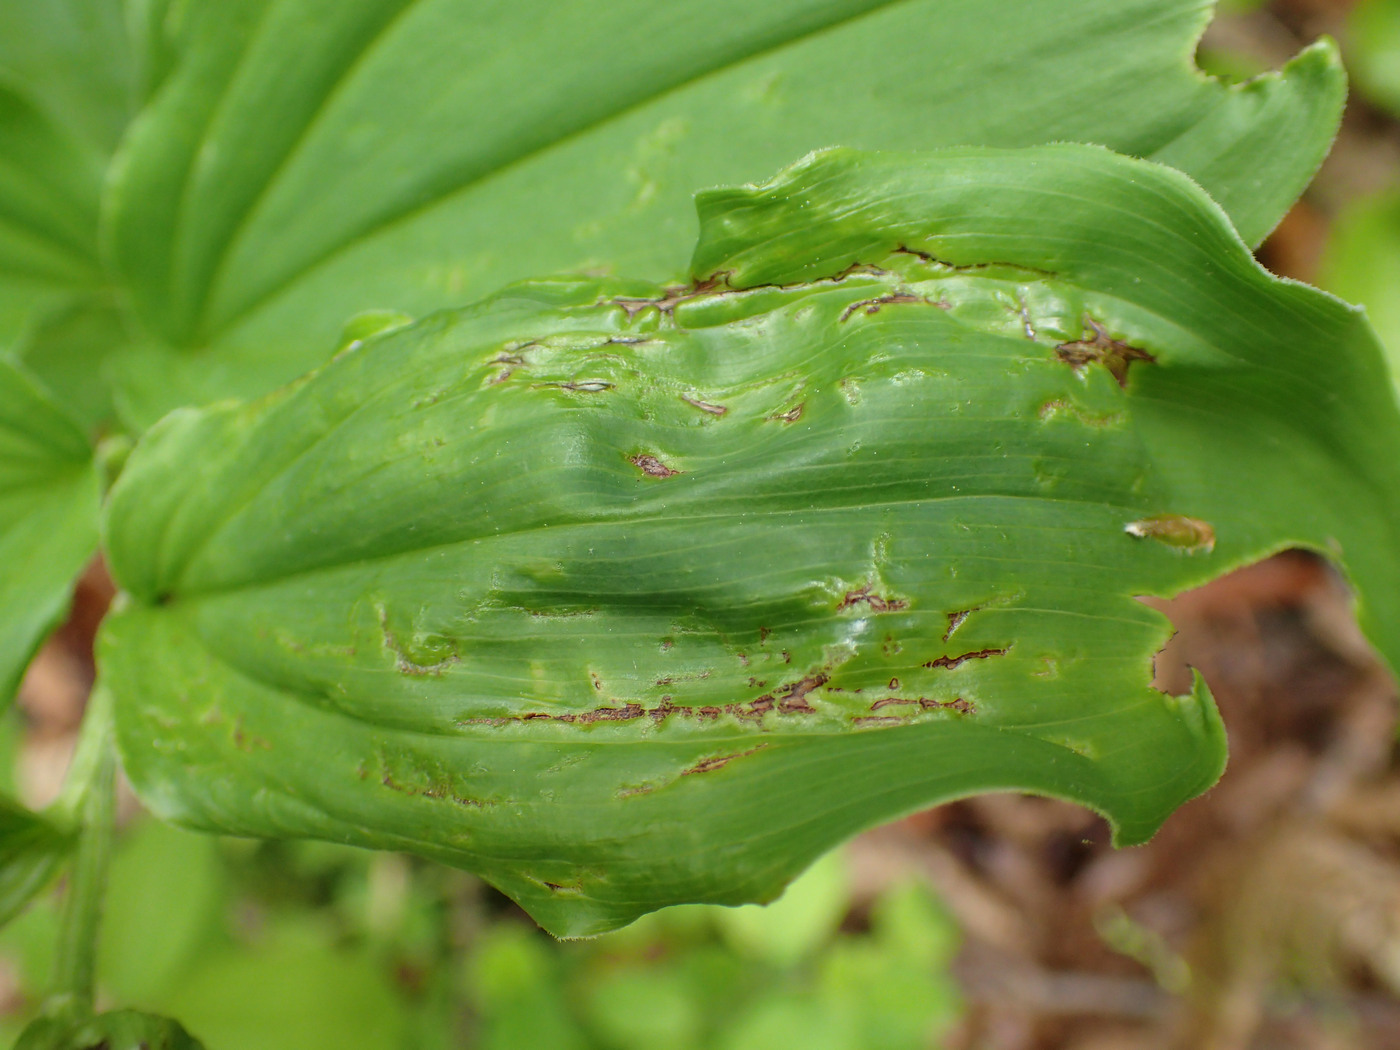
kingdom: Plantae
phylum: Tracheophyta
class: Liliopsida
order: Asparagales
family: Asparagaceae
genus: Maianthemum
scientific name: Maianthemum racemosum
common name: False spikenard
